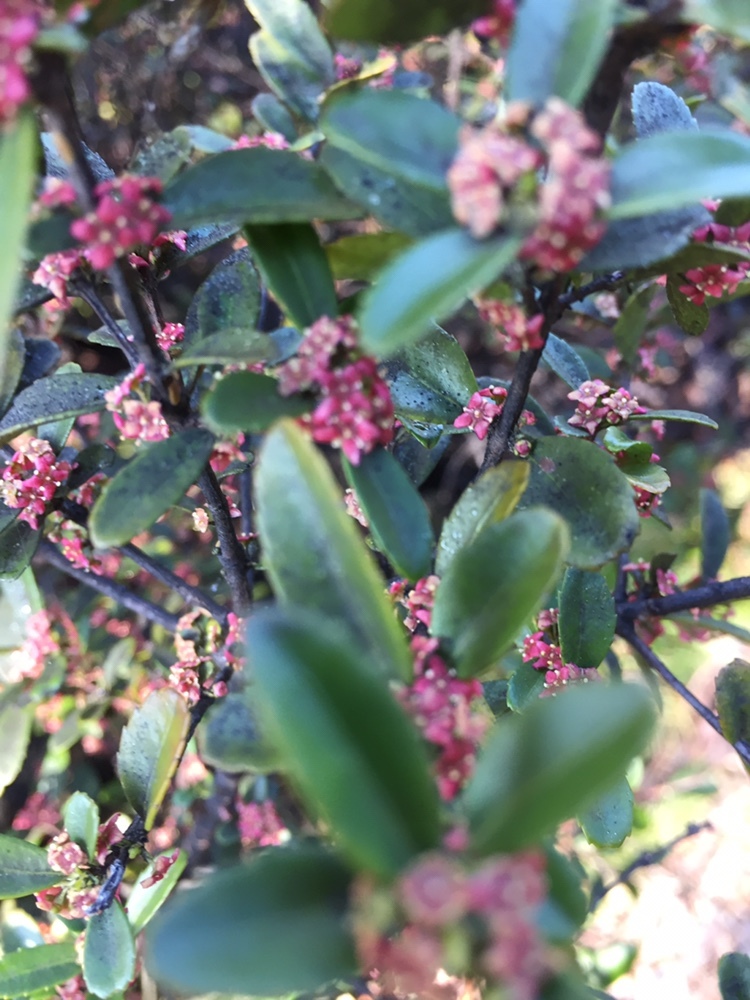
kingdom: Plantae
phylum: Tracheophyta
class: Magnoliopsida
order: Celastrales
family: Celastraceae
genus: Paxistima
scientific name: Paxistima myrsinites
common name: Mountain-lover
